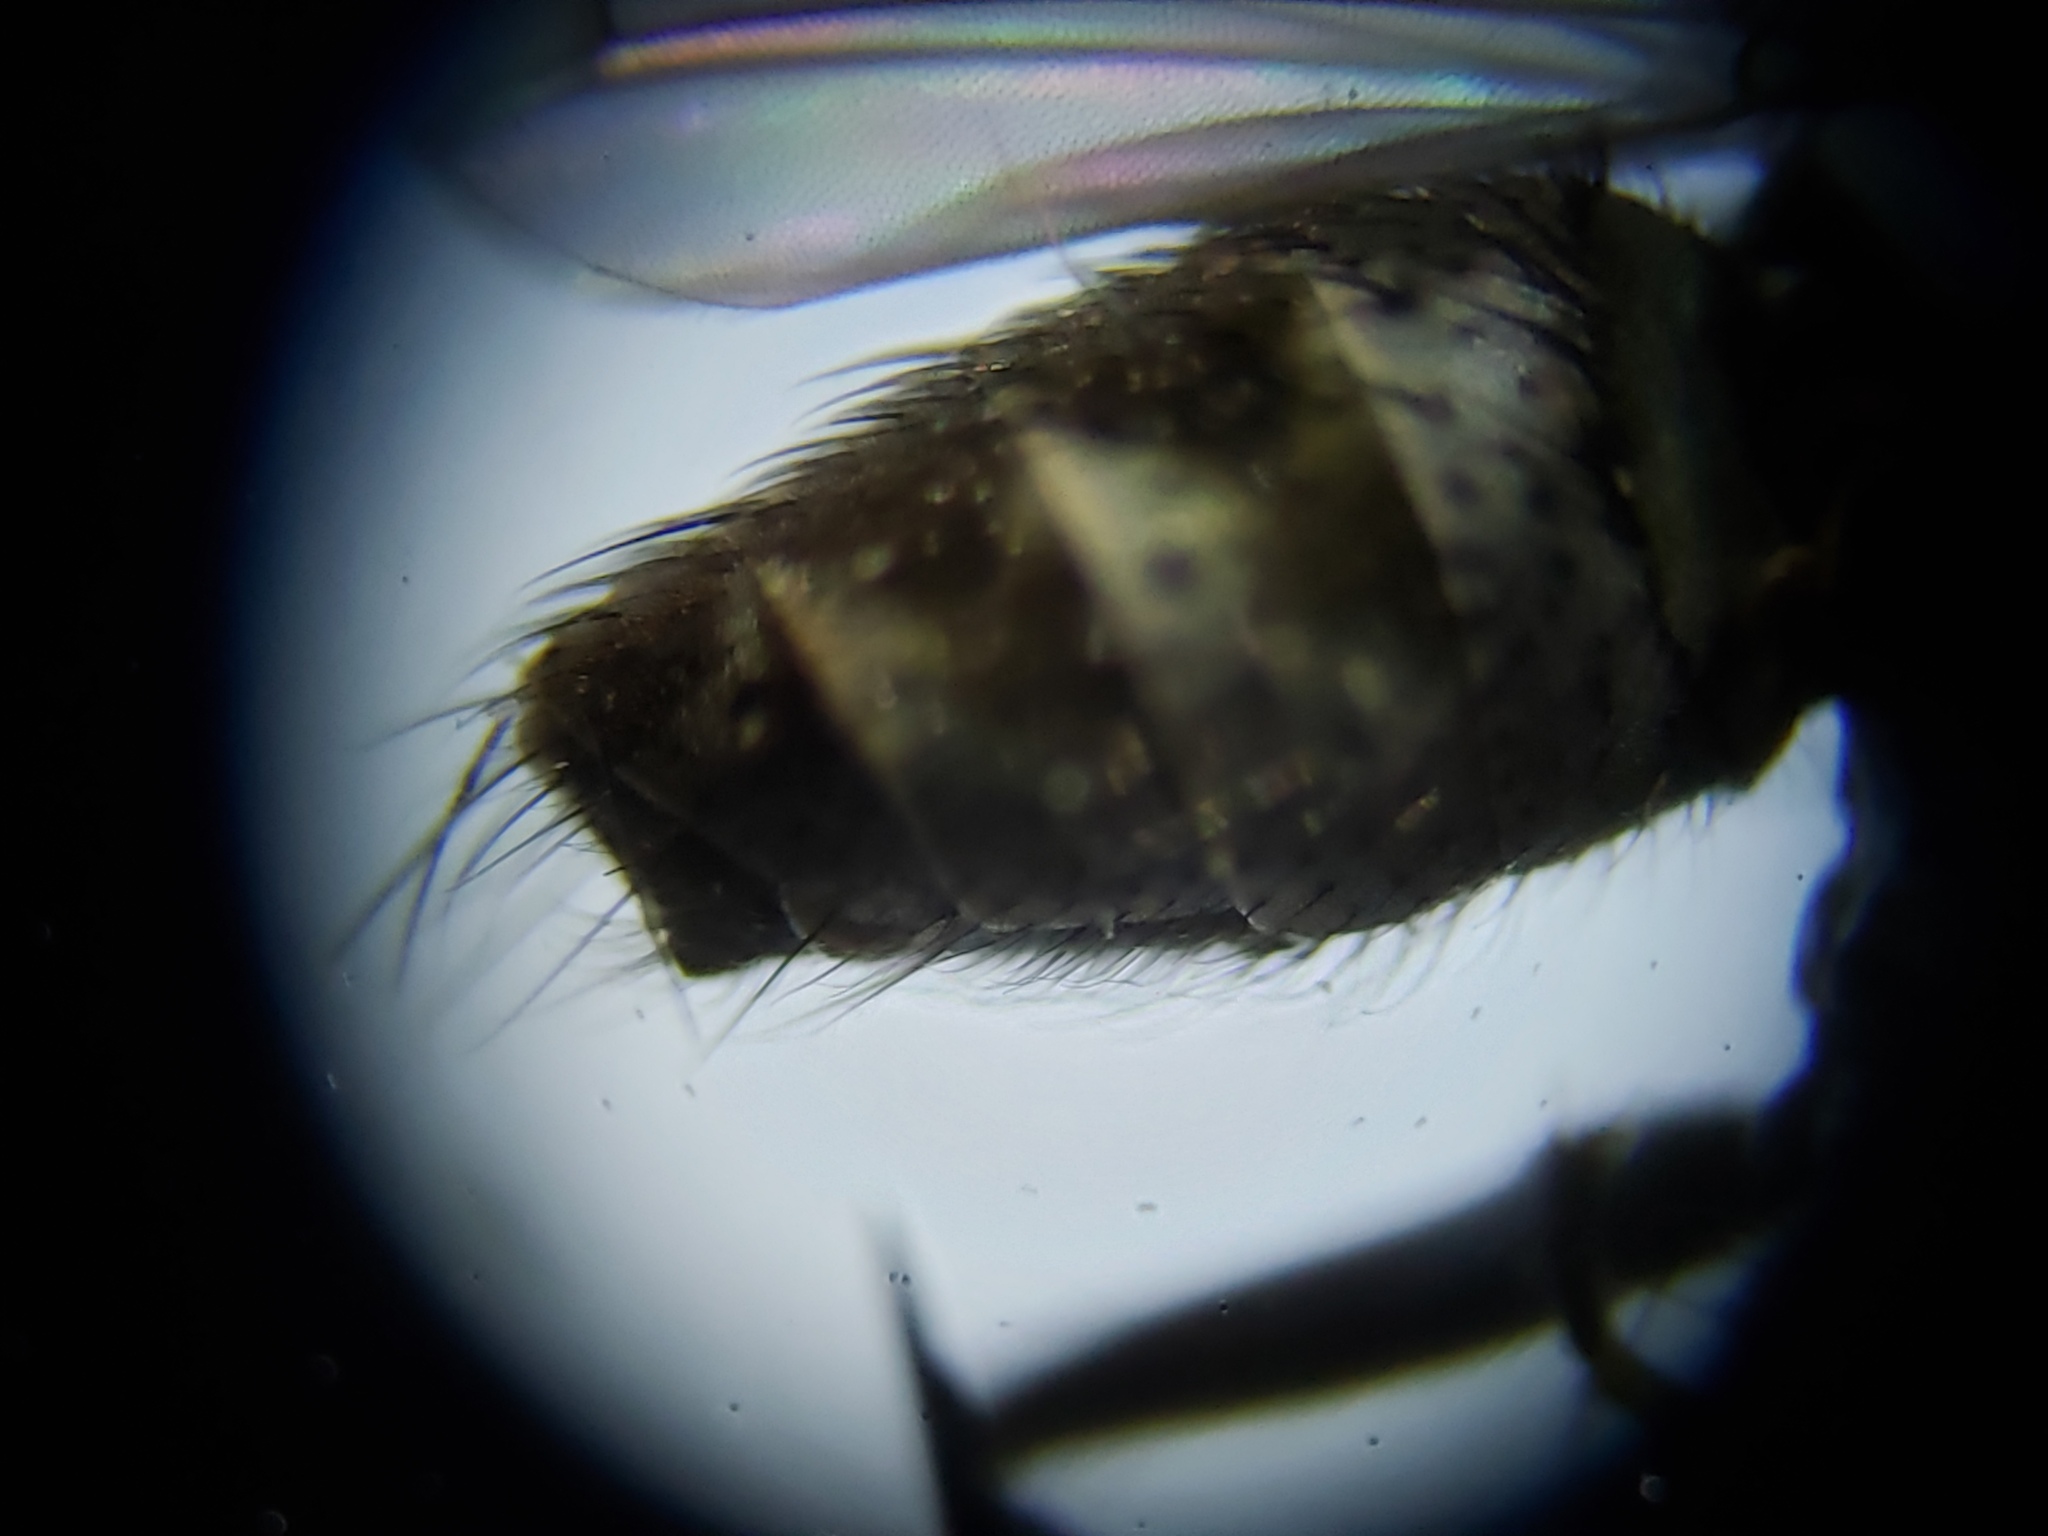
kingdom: Animalia
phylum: Arthropoda
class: Insecta
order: Diptera
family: Muscidae
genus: Lispe
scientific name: Lispe albitarsis
